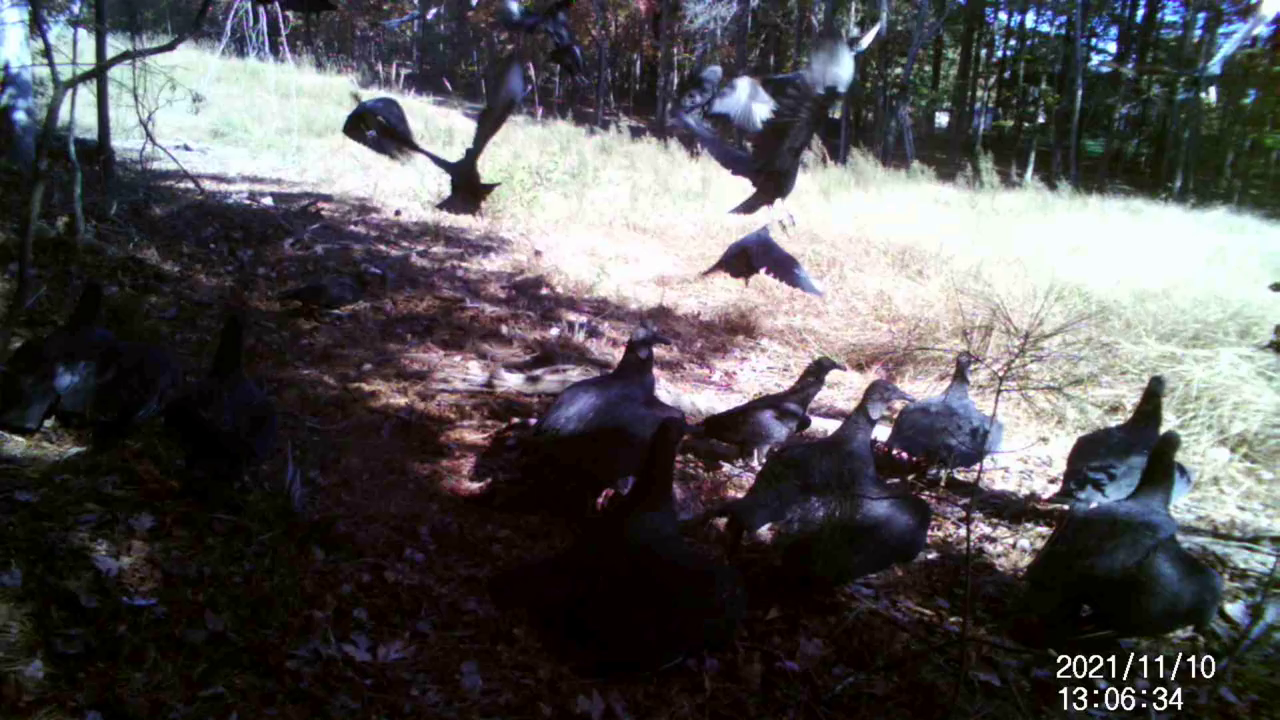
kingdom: Animalia
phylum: Chordata
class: Aves
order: Accipitriformes
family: Cathartidae
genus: Coragyps
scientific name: Coragyps atratus
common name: Black vulture
